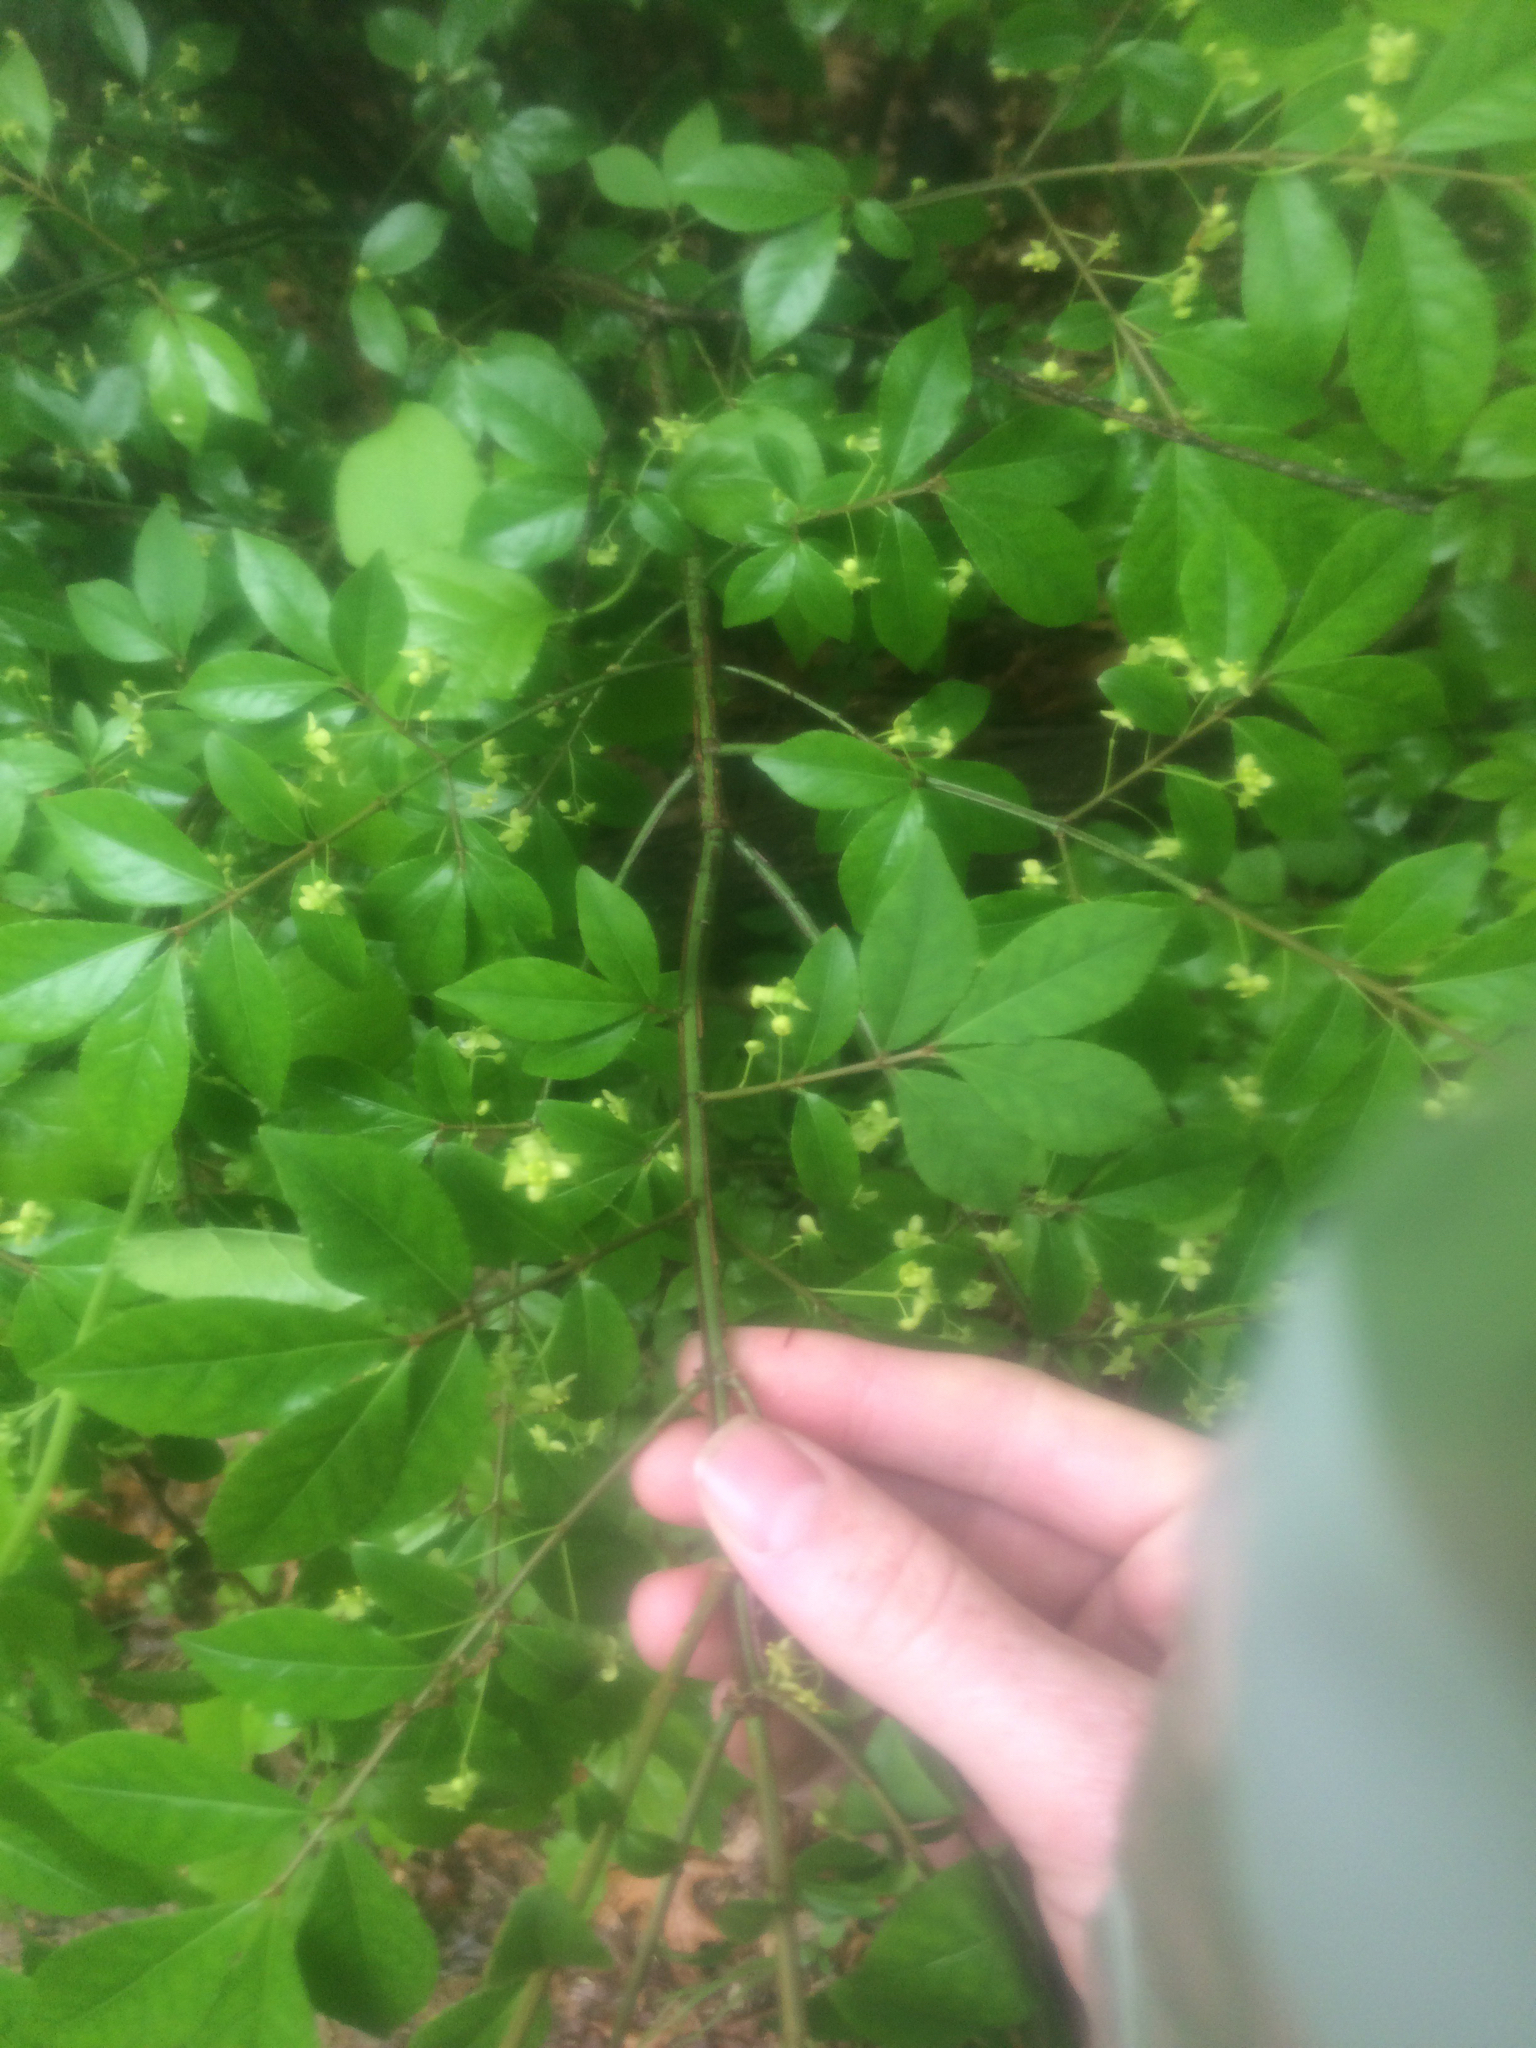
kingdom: Plantae
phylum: Tracheophyta
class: Magnoliopsida
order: Celastrales
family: Celastraceae
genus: Euonymus
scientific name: Euonymus alatus
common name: Winged euonymus
